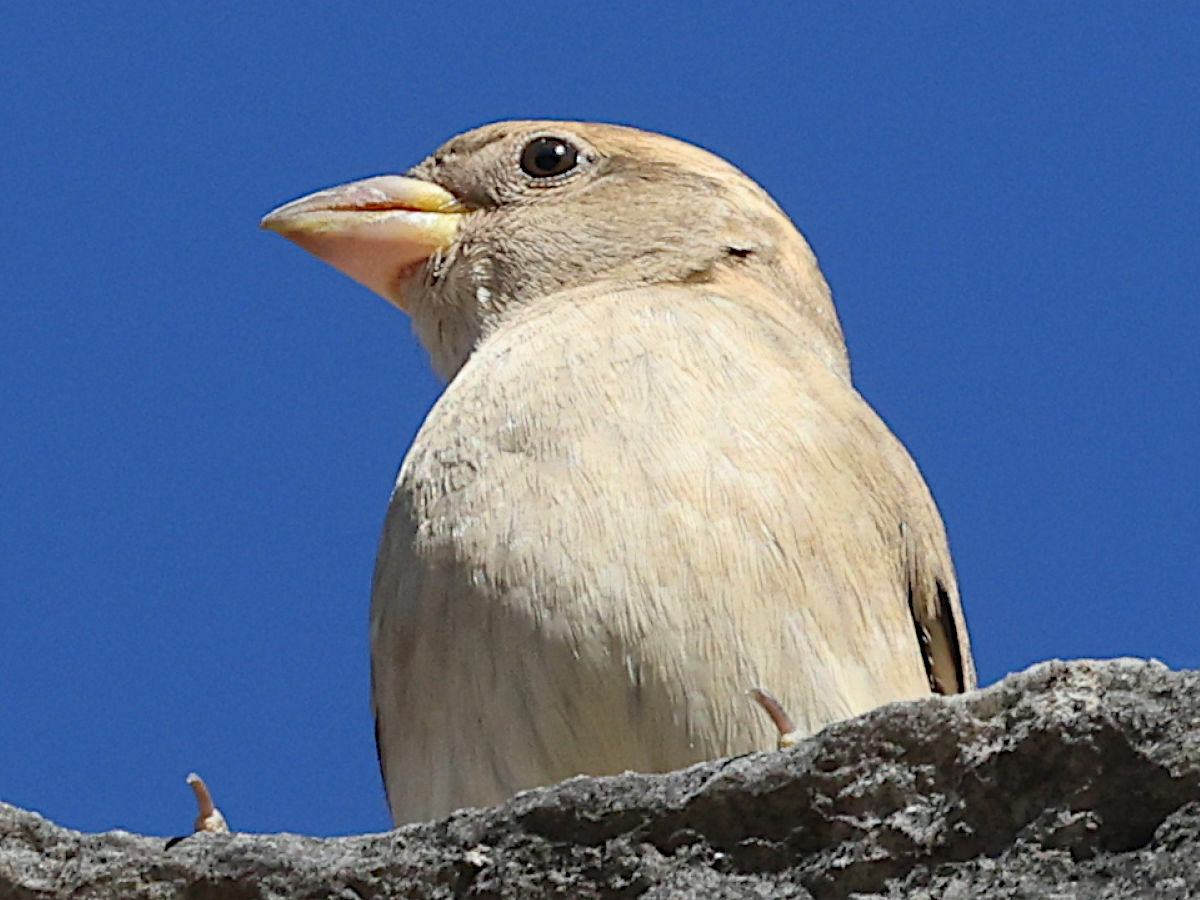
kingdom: Animalia
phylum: Chordata
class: Aves
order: Passeriformes
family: Passeridae
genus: Passer
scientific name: Passer domesticus
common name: House sparrow
